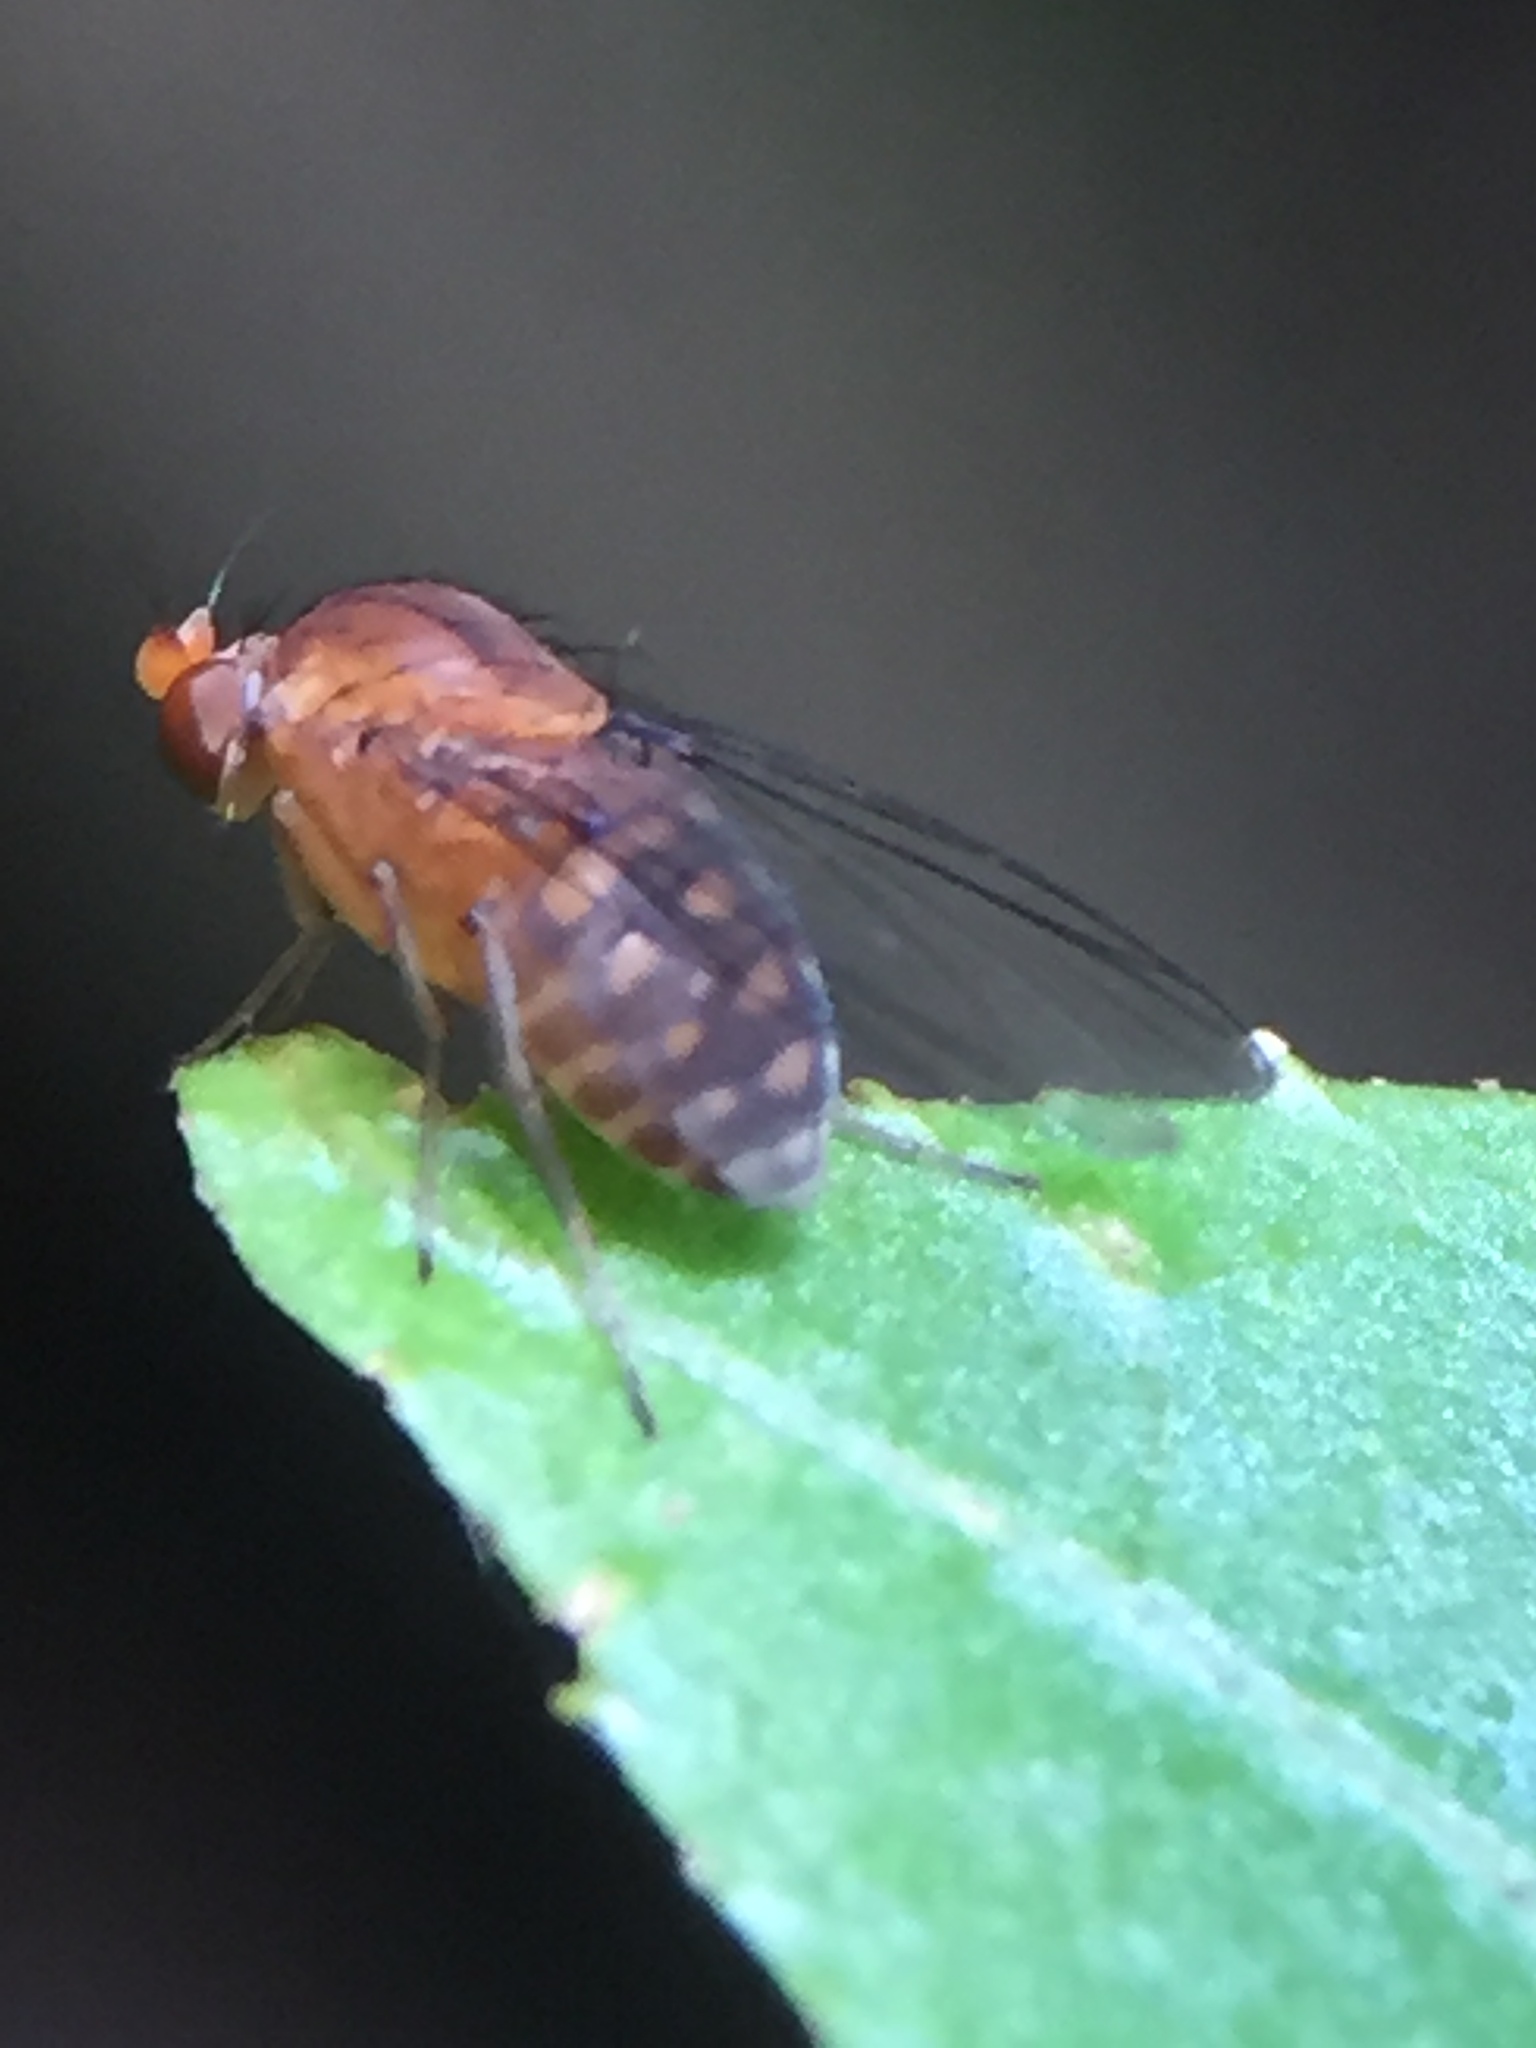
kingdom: Animalia
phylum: Arthropoda
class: Insecta
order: Diptera
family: Phoridae
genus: Sciadocera
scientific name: Sciadocera rufomaculata
